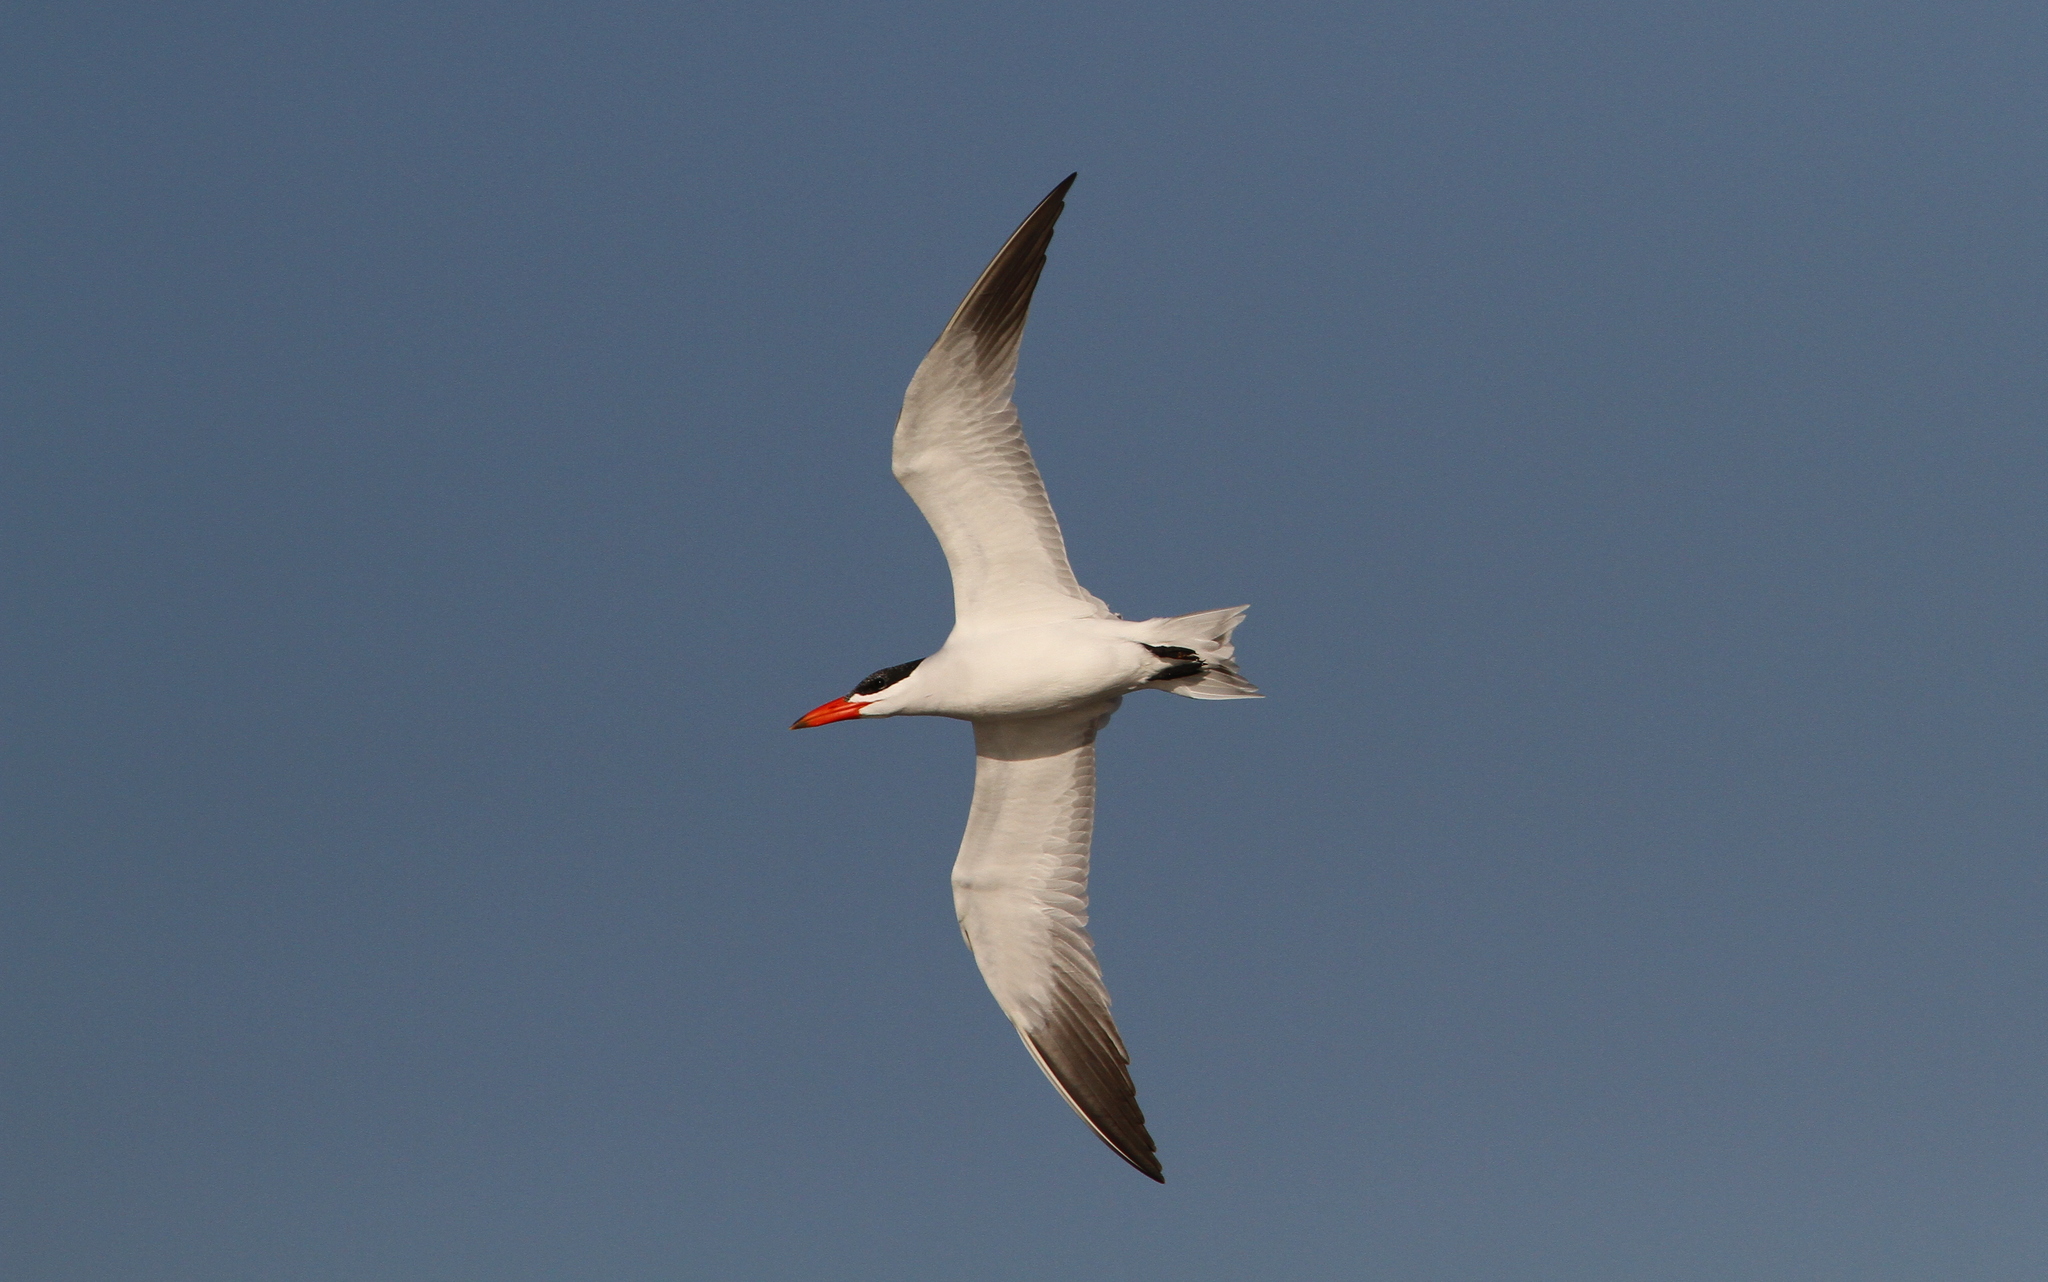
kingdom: Animalia
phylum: Chordata
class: Aves
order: Charadriiformes
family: Laridae
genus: Hydroprogne
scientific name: Hydroprogne caspia
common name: Caspian tern
